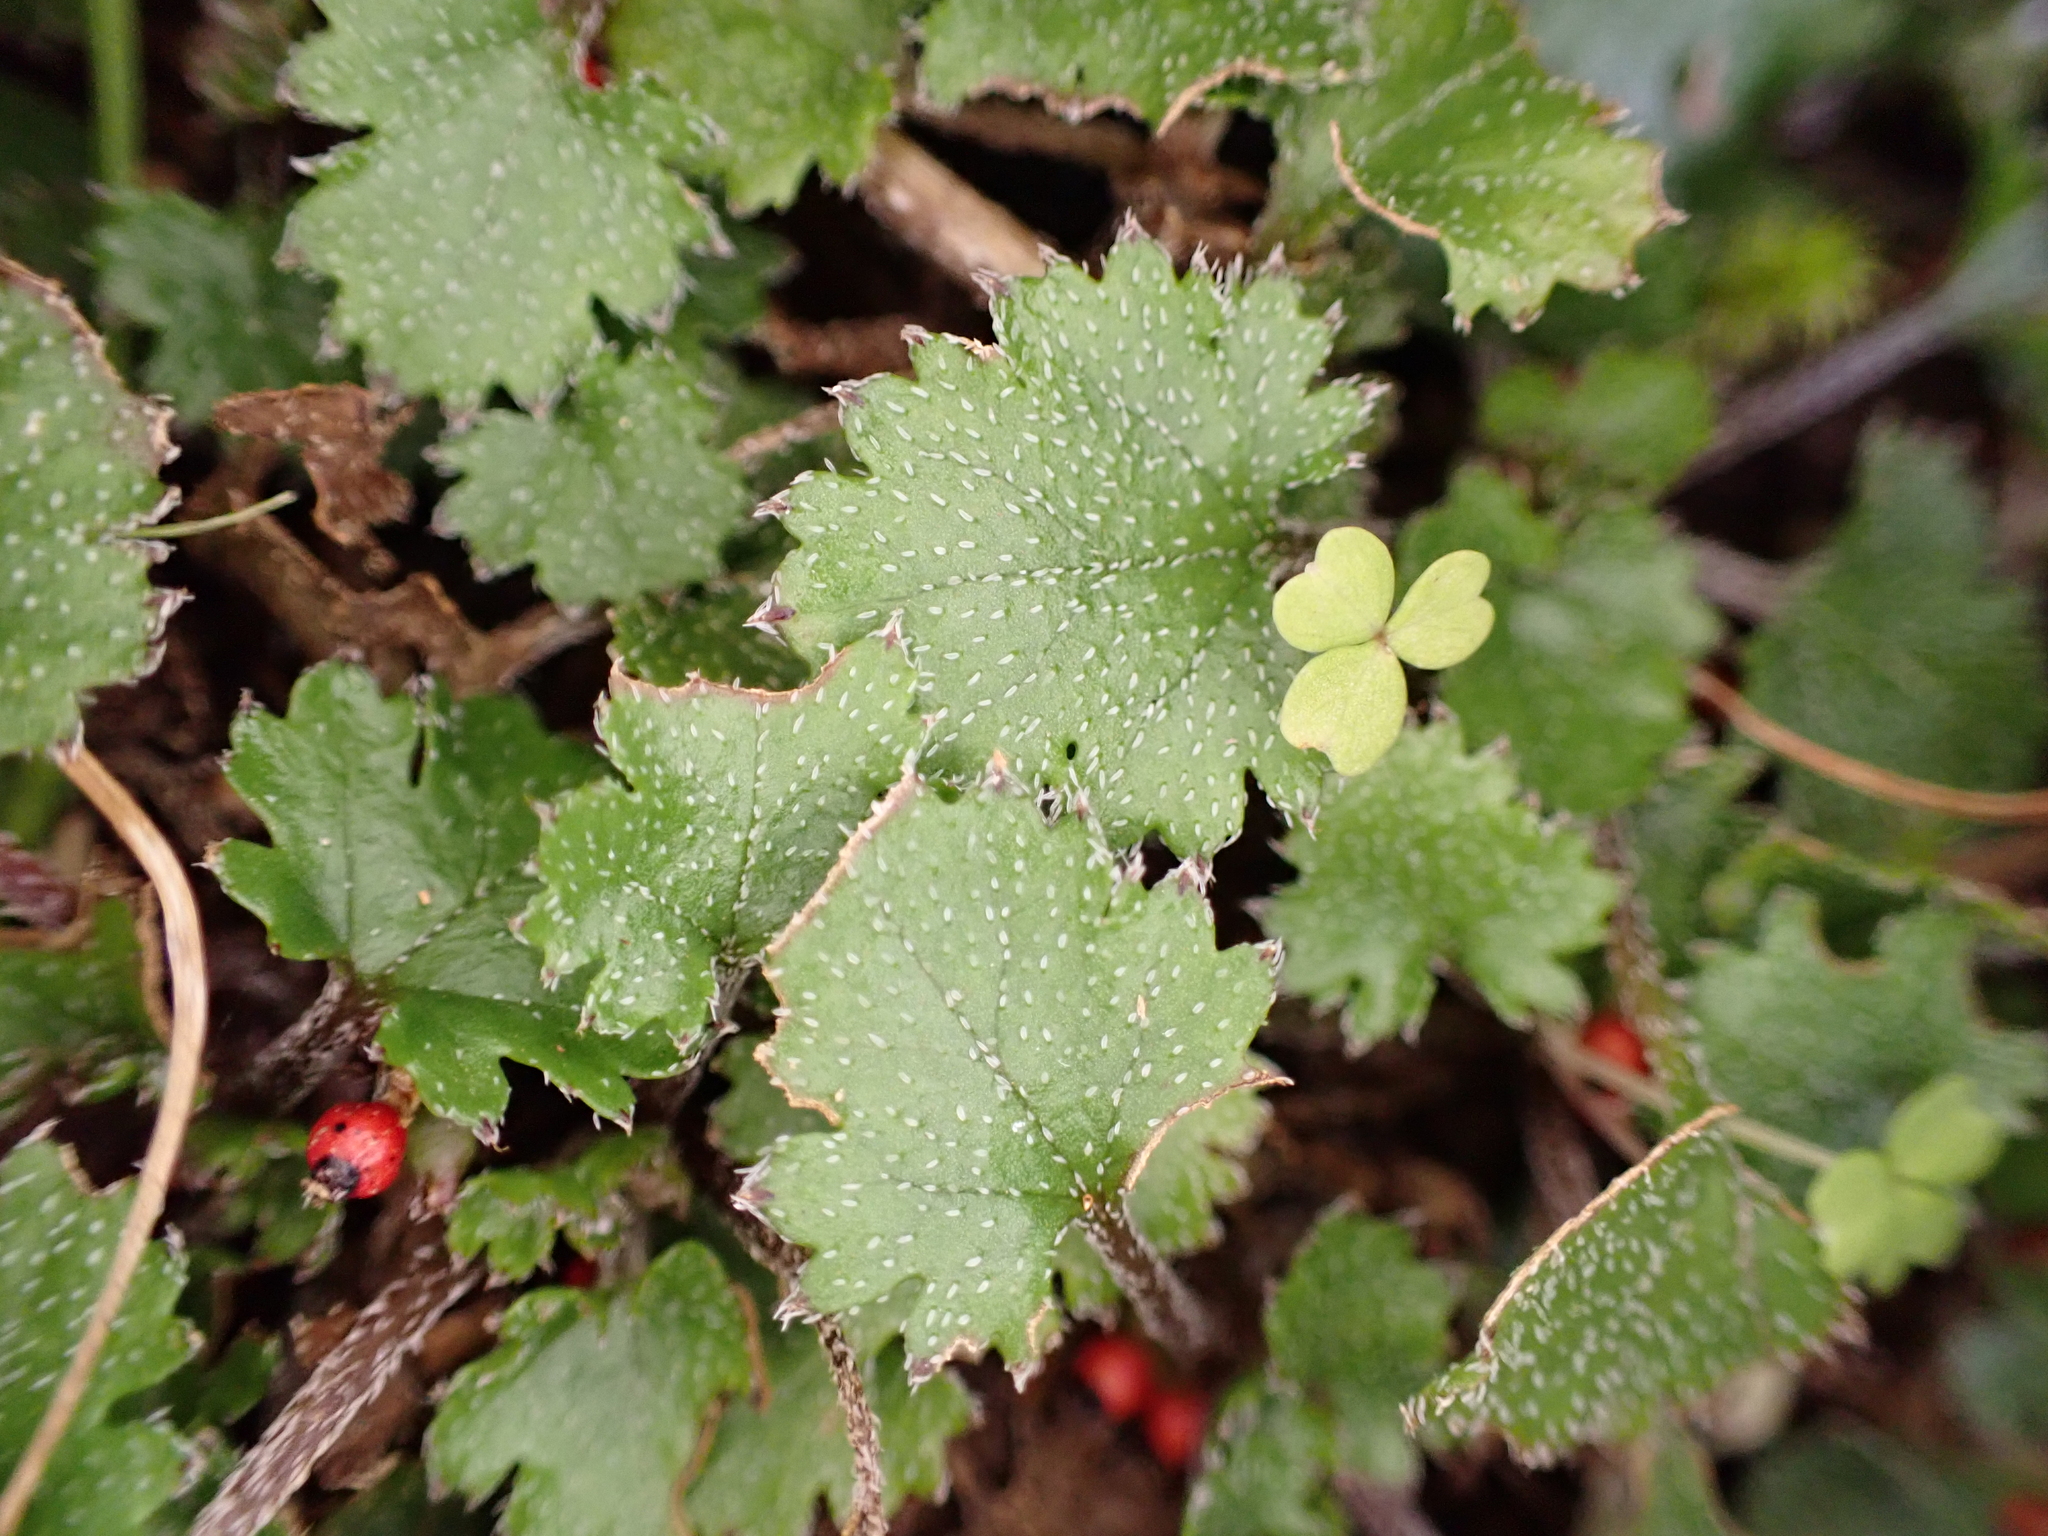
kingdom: Plantae
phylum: Tracheophyta
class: Magnoliopsida
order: Gunnerales
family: Gunneraceae
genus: Gunnera
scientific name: Gunnera monoica
